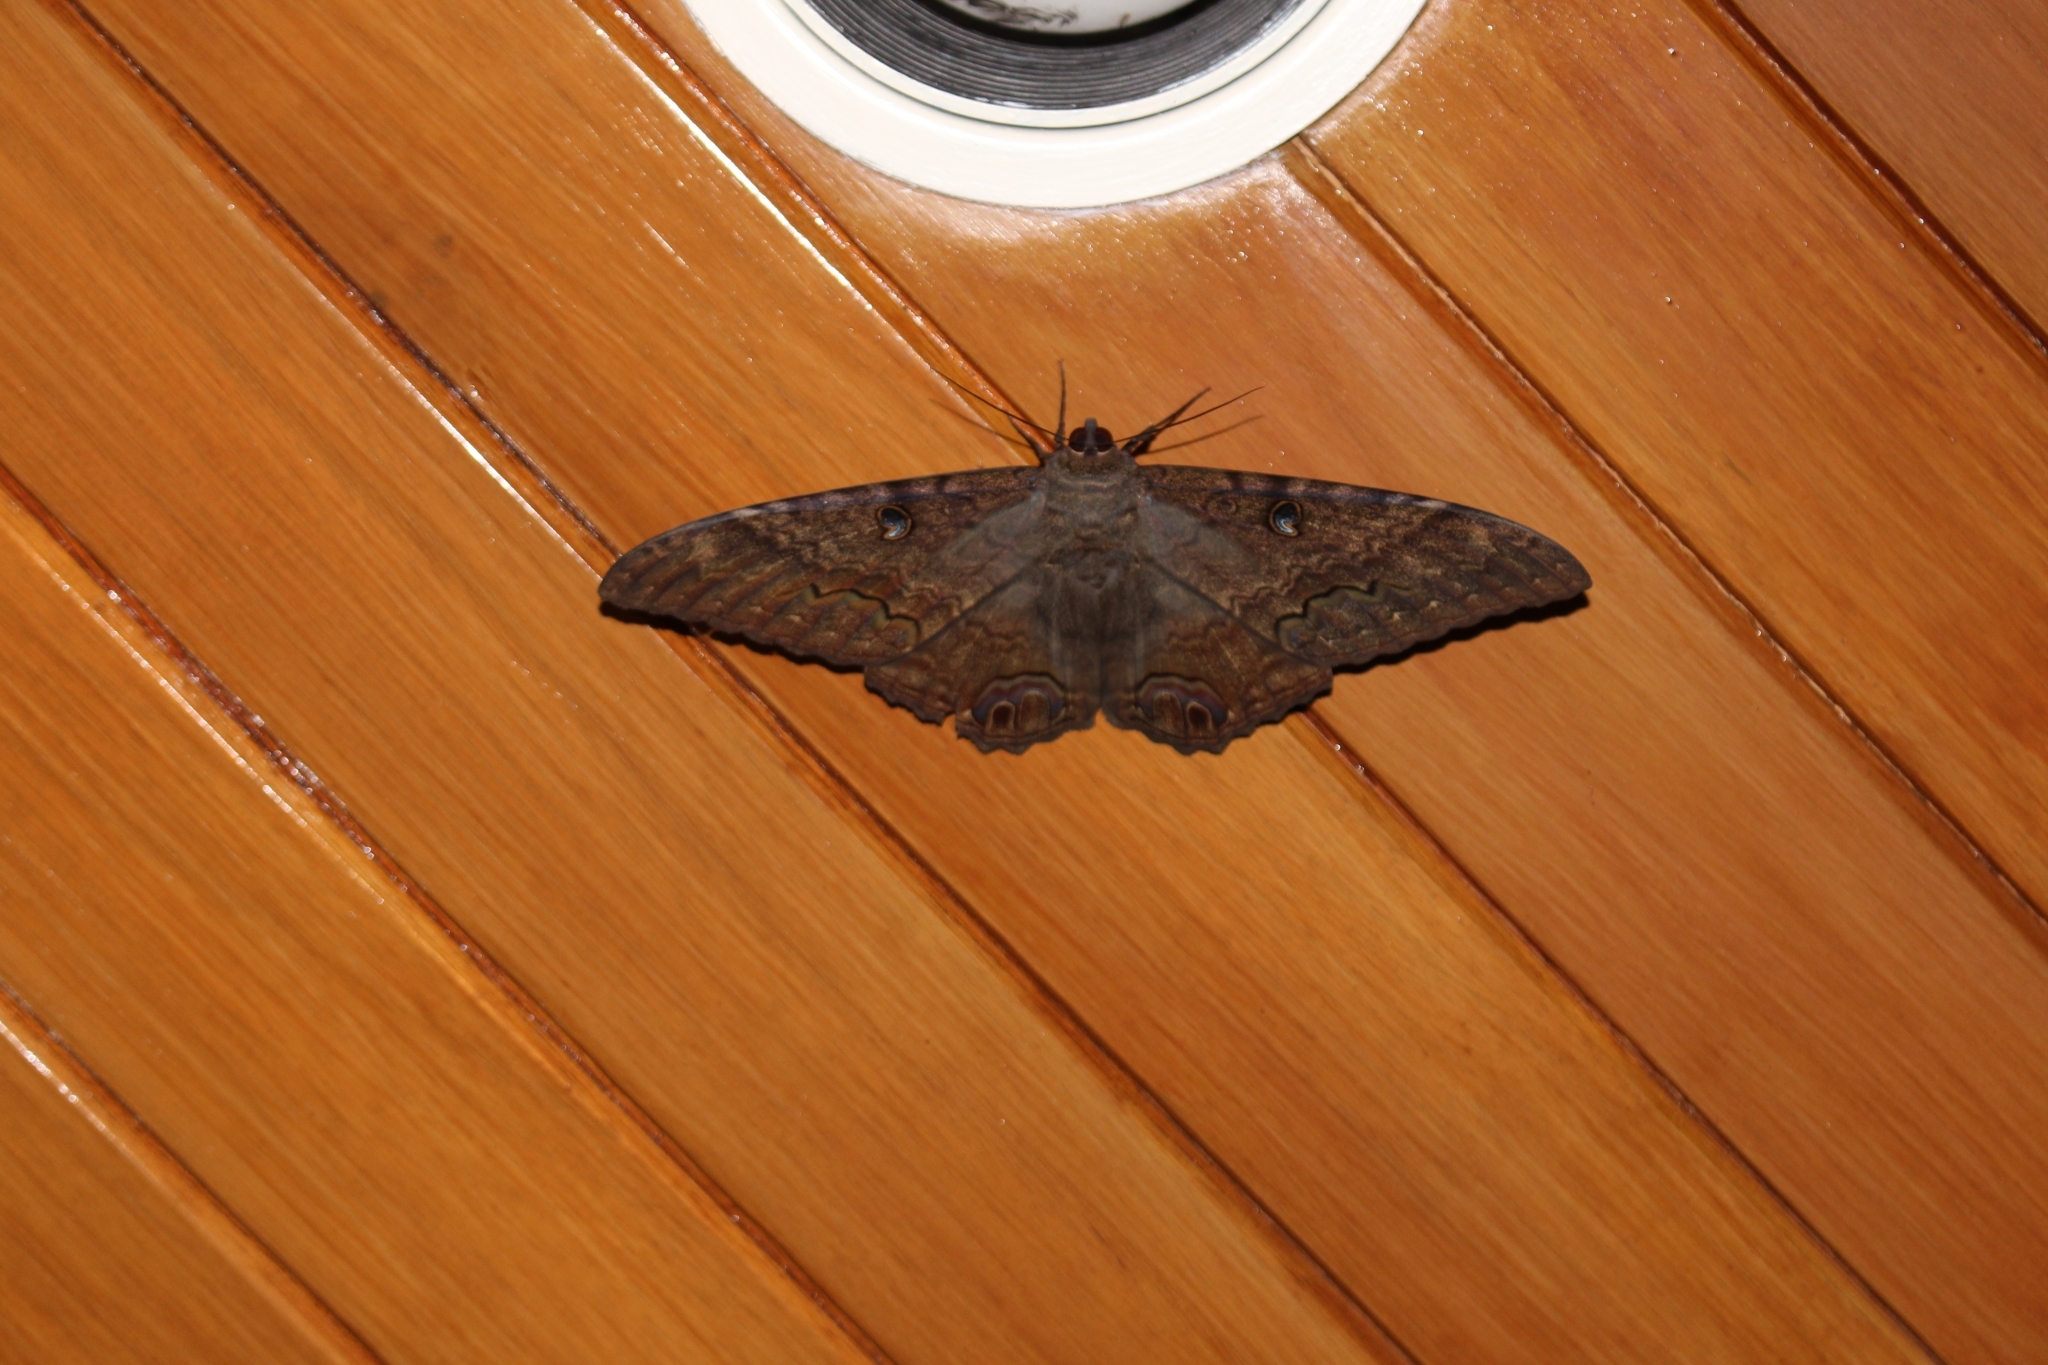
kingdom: Animalia
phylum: Arthropoda
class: Insecta
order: Lepidoptera
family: Erebidae
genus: Ascalapha
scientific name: Ascalapha odorata
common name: Black witch
